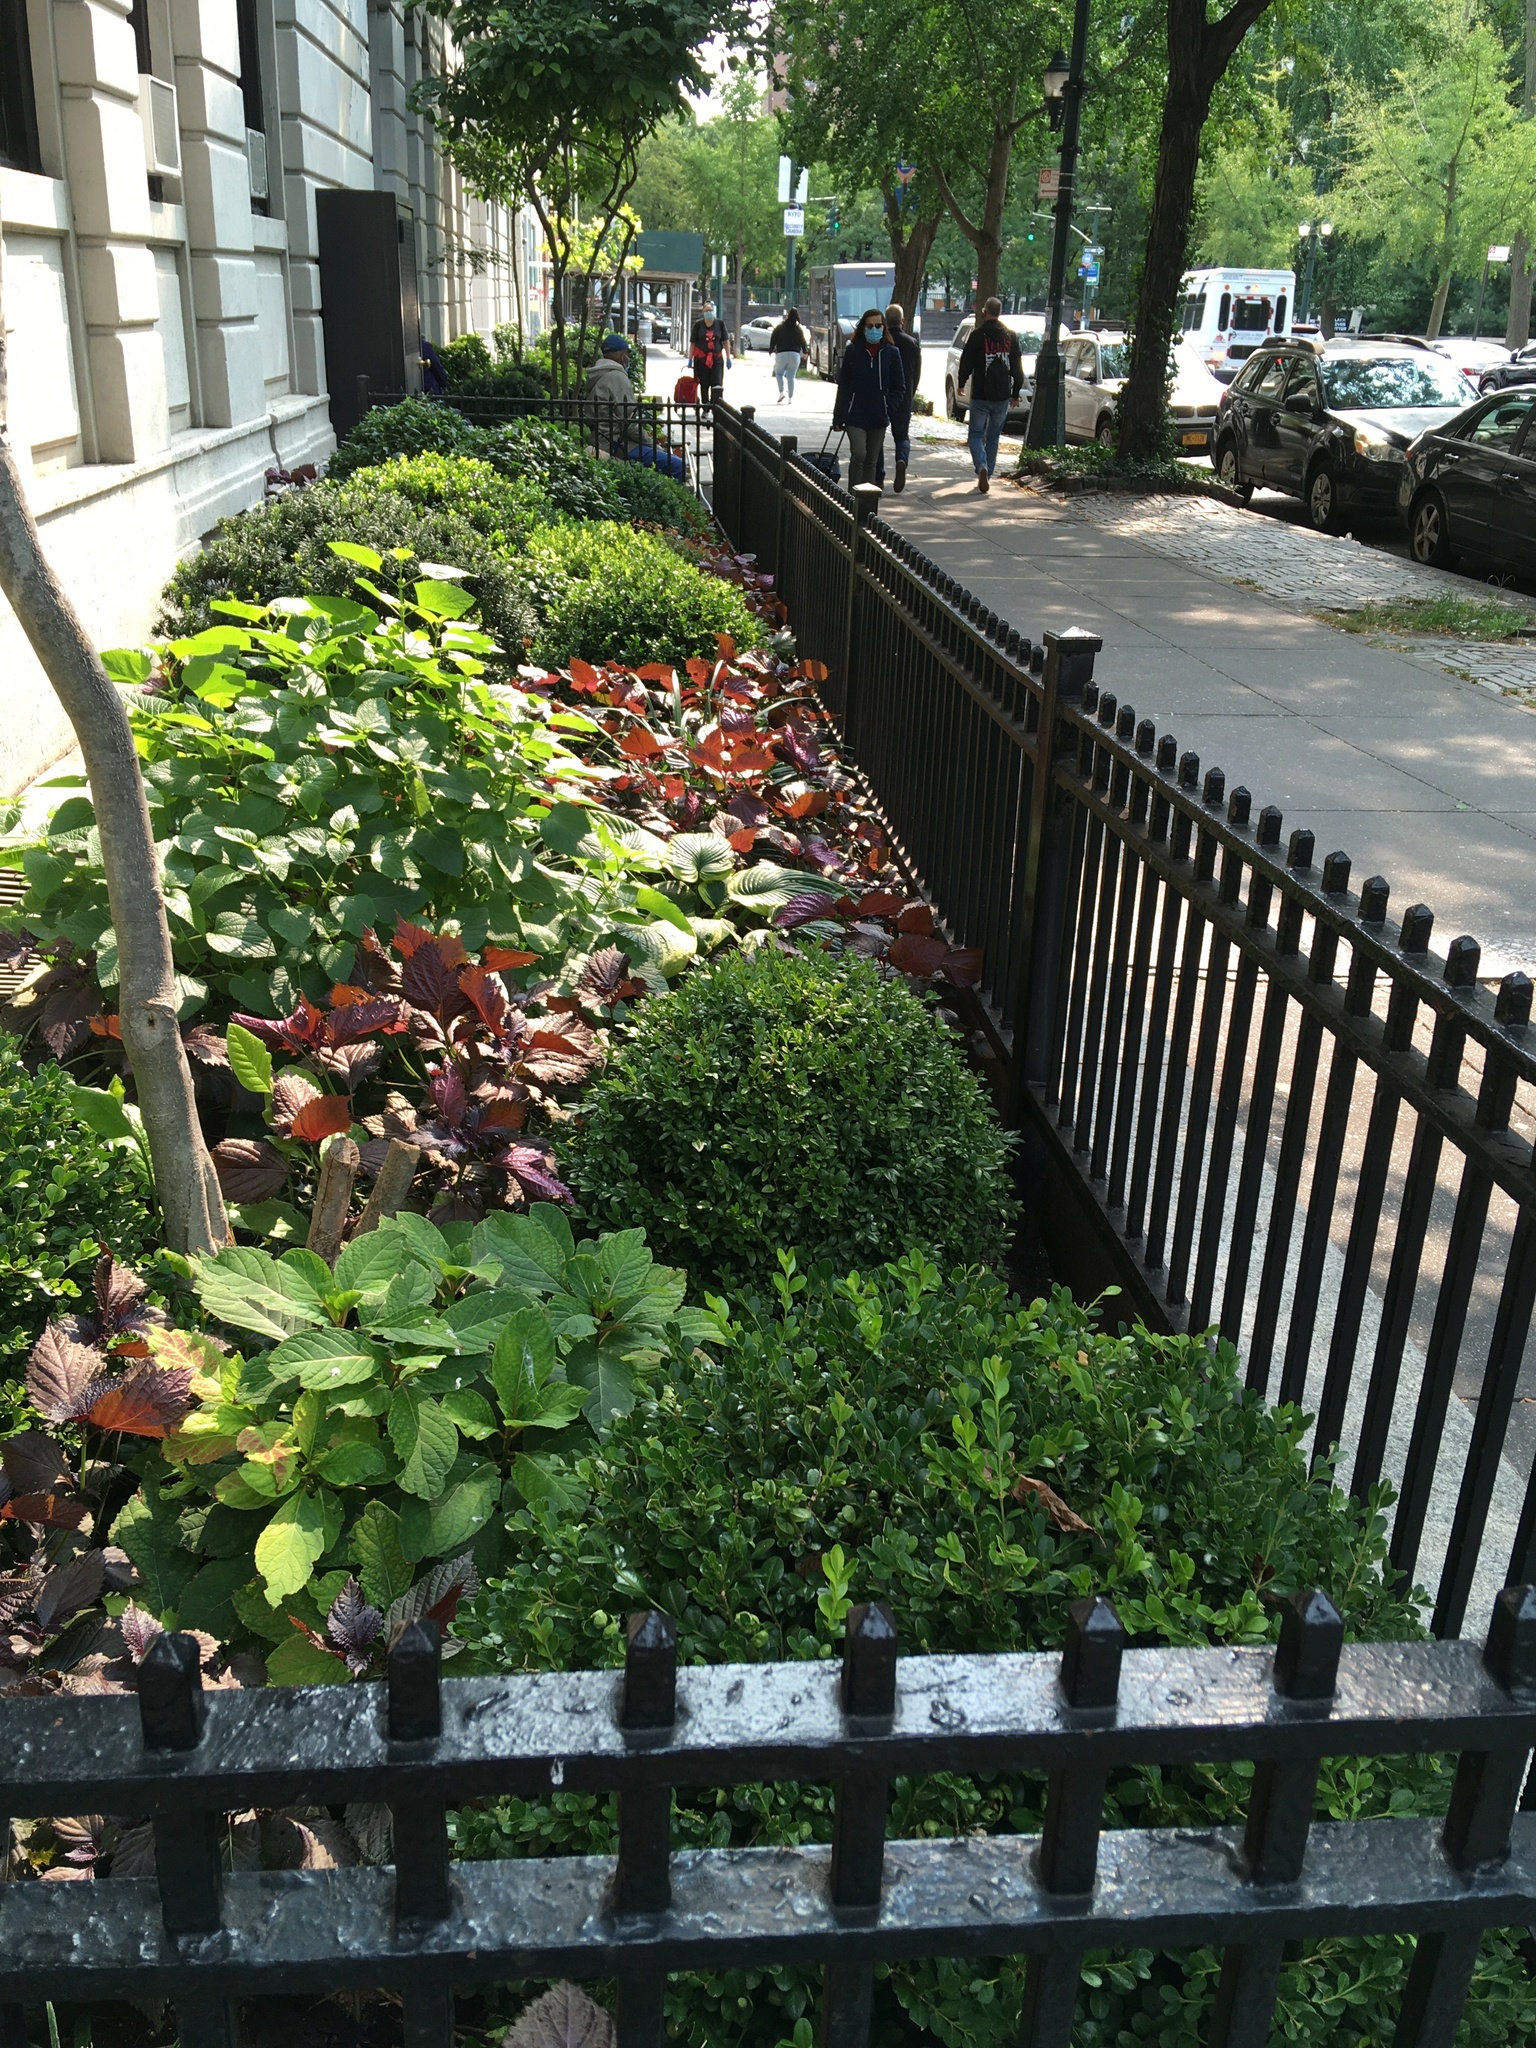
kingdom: Plantae
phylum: Tracheophyta
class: Magnoliopsida
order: Lamiales
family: Lamiaceae
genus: Perilla
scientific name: Perilla frutescens
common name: Perilla
